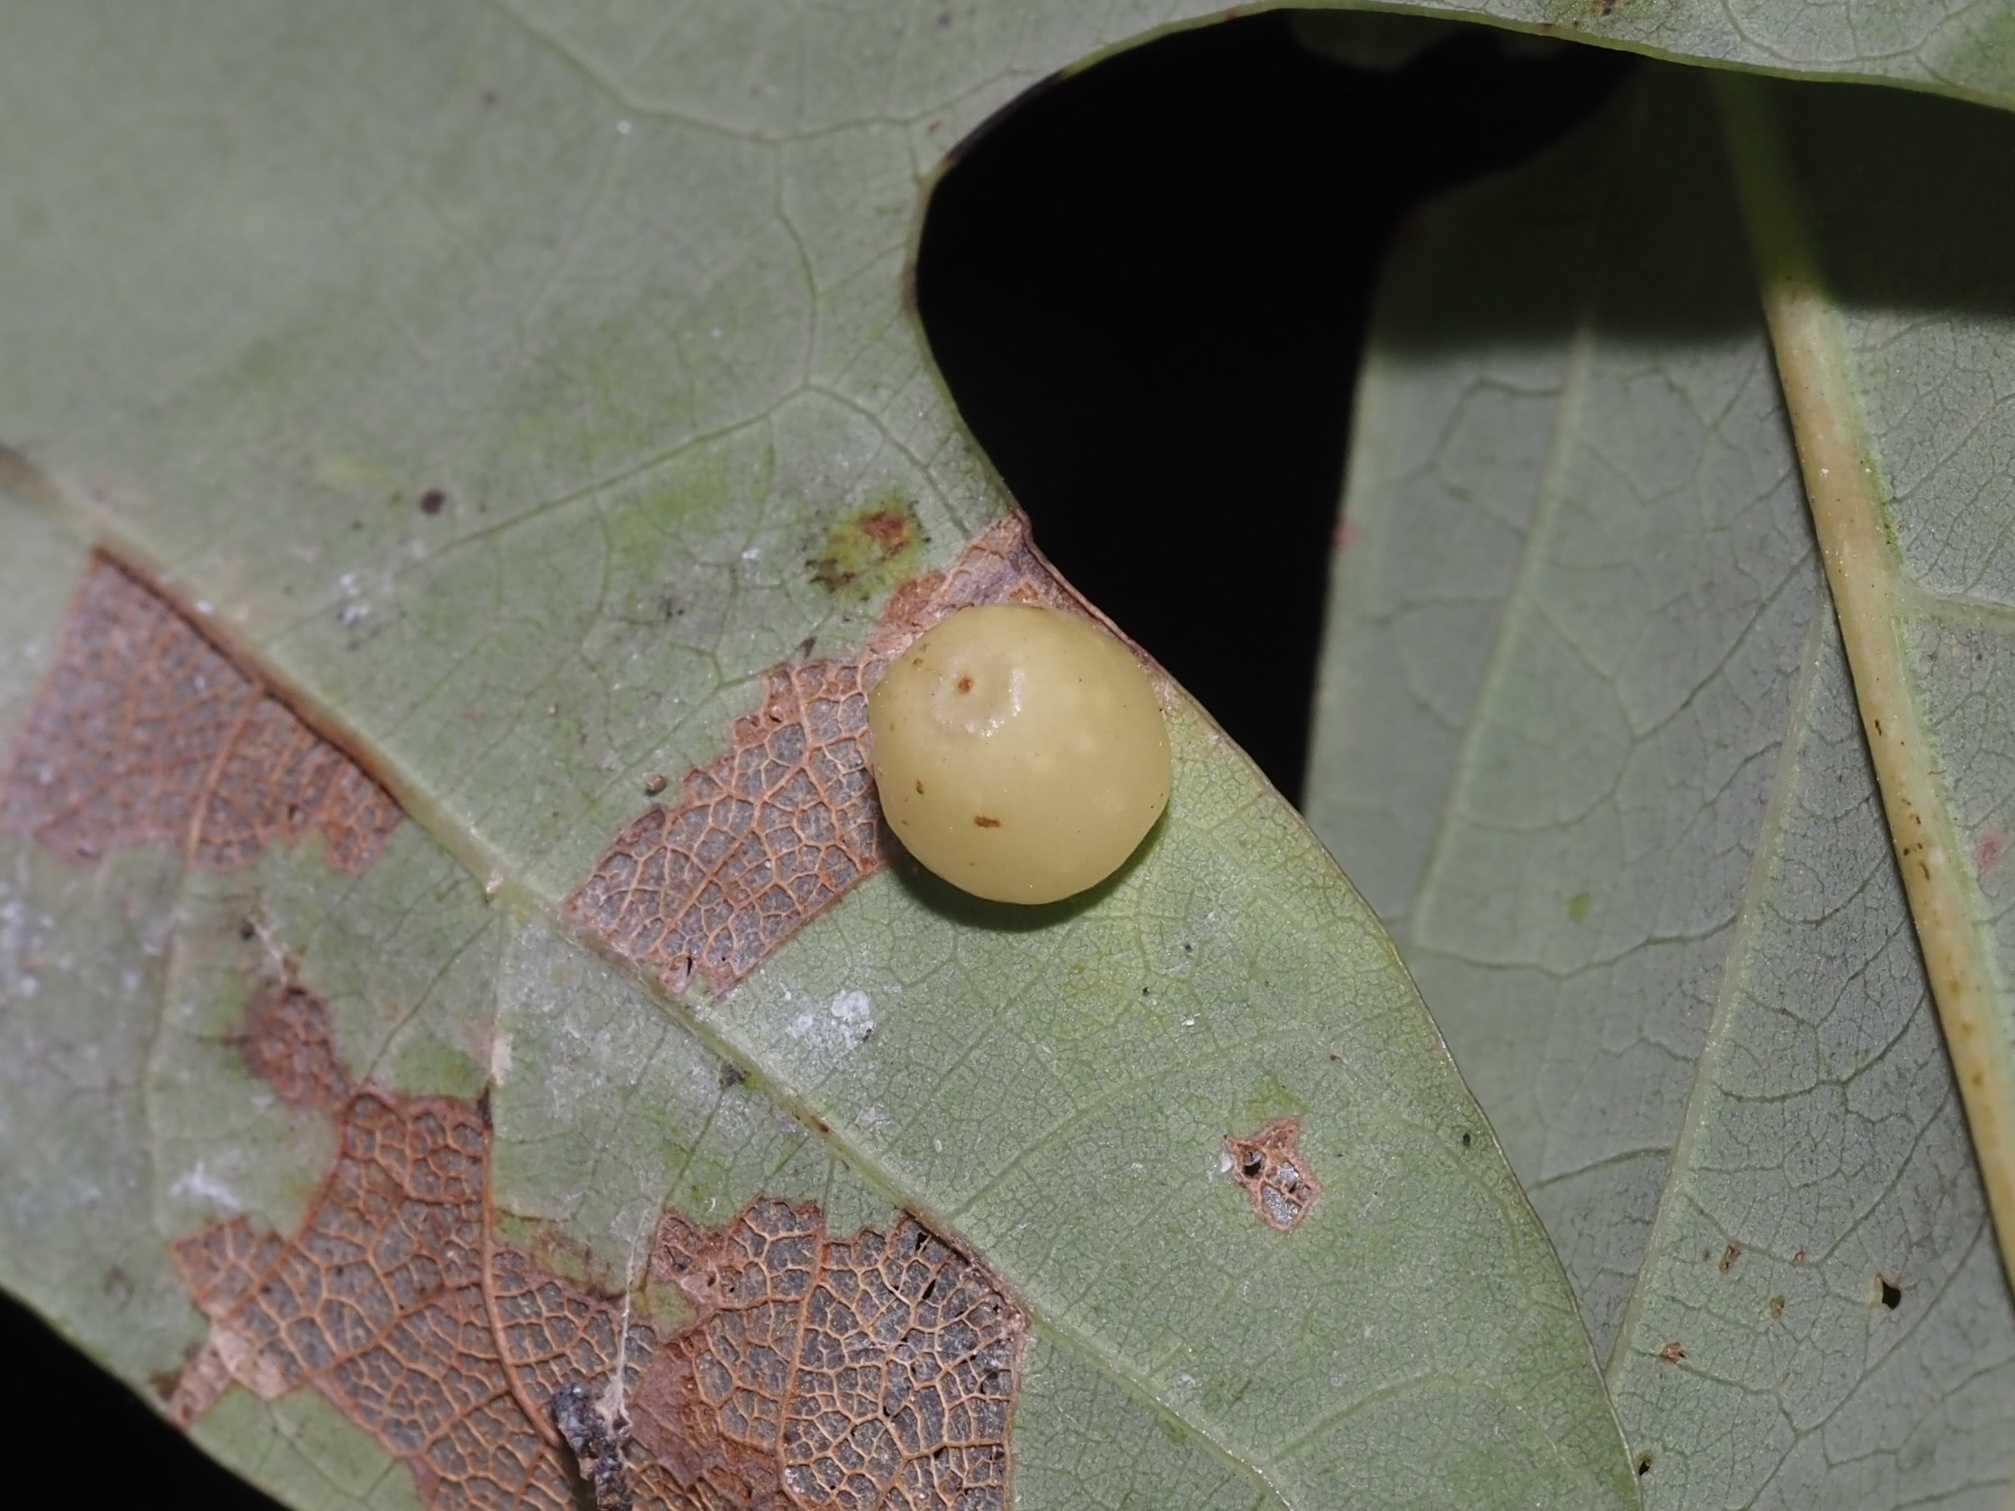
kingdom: Animalia
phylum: Arthropoda
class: Insecta
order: Hymenoptera
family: Cynipidae
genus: Andricus
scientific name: Andricus
